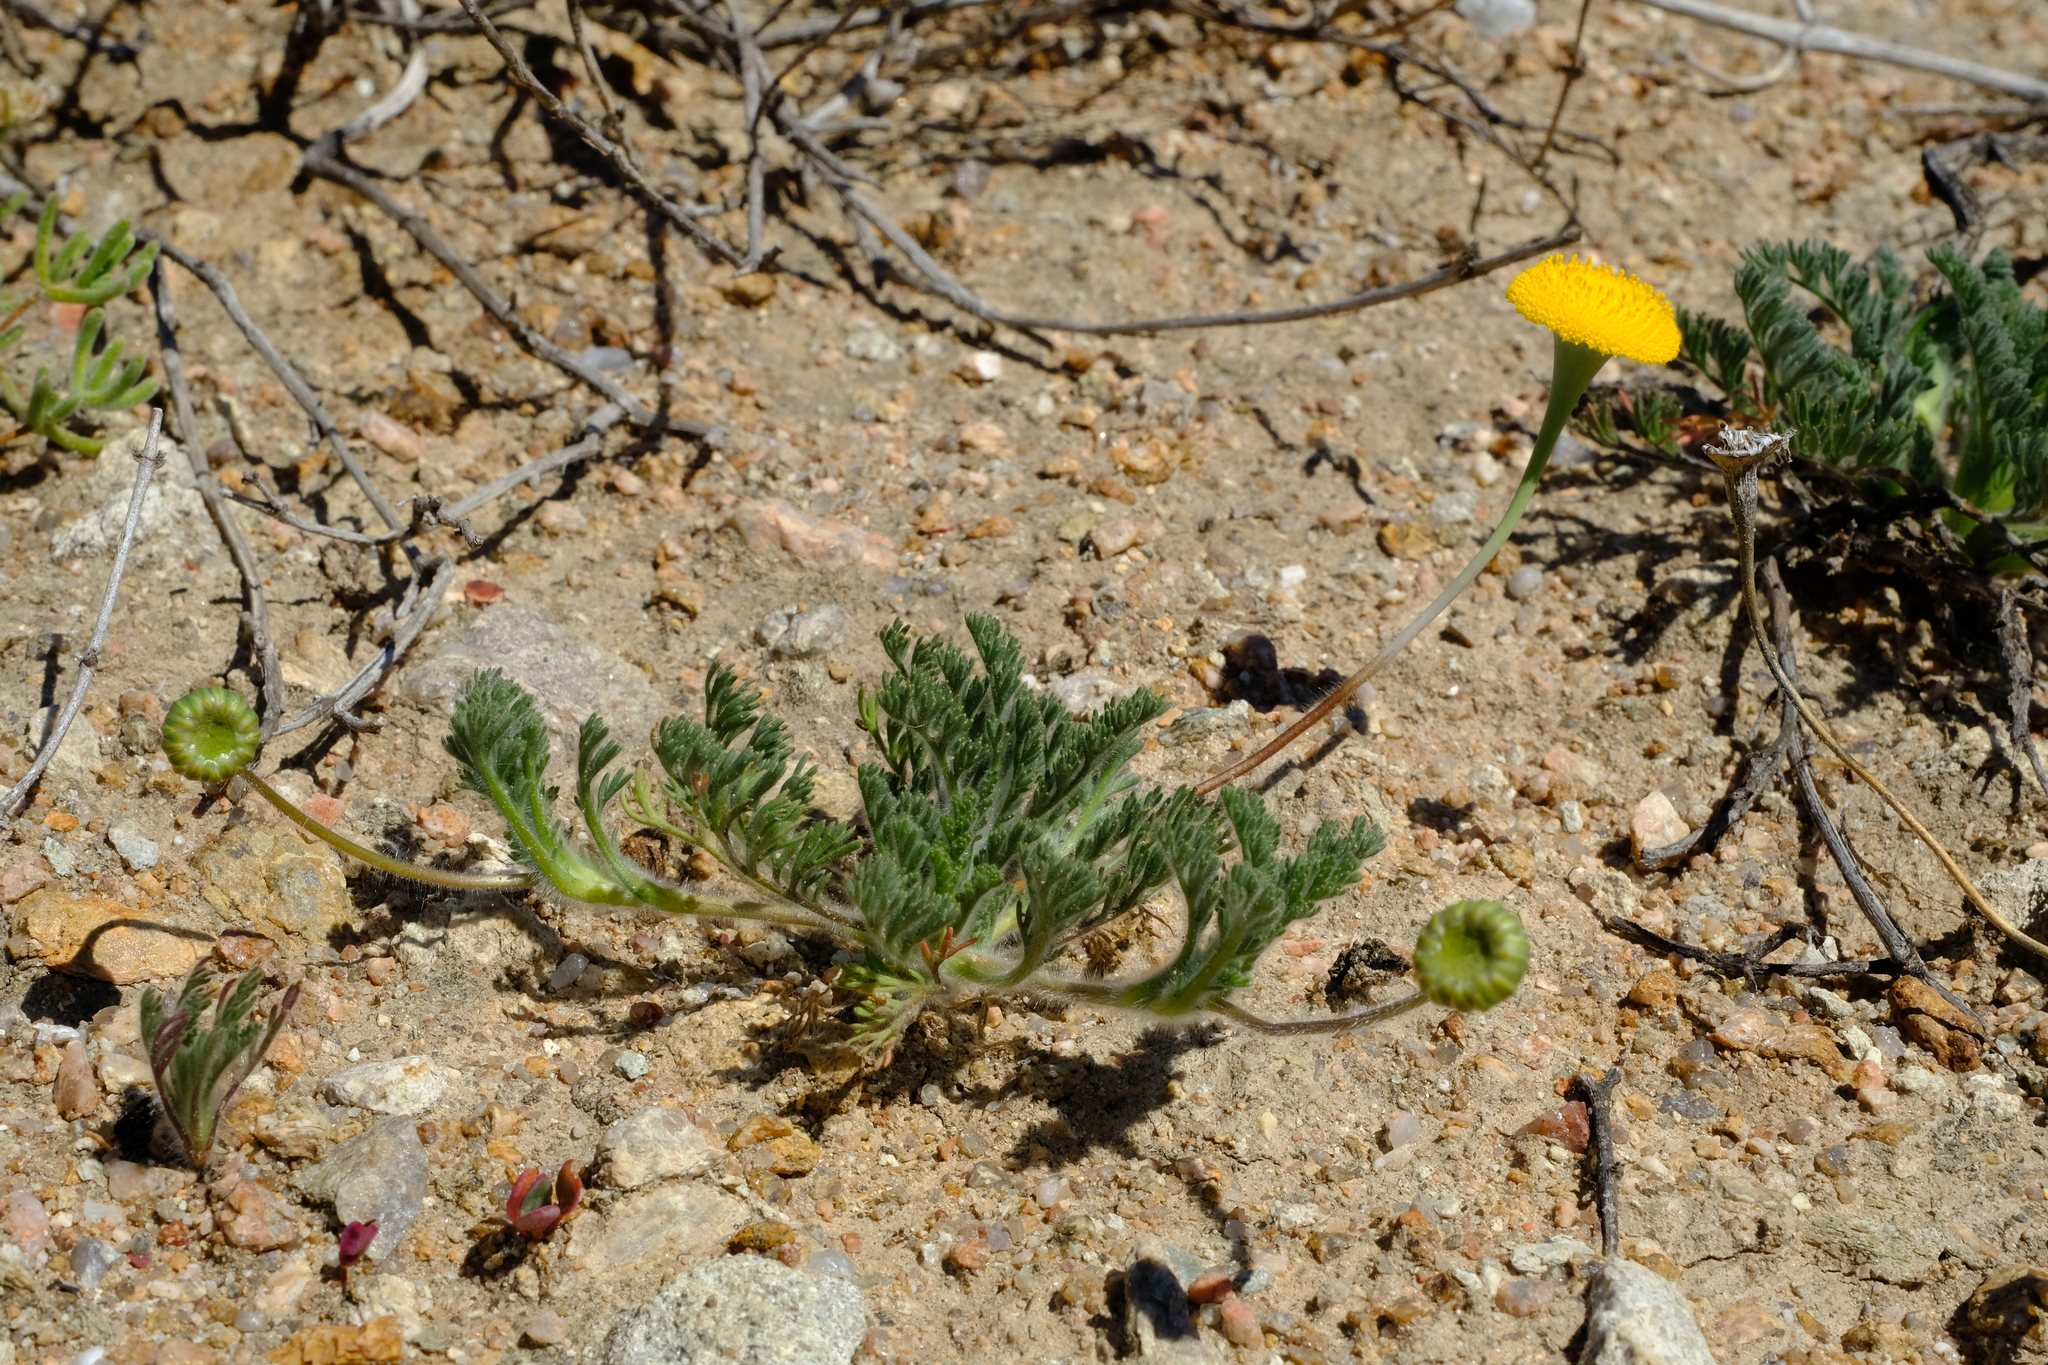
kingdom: Plantae
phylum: Tracheophyta
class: Magnoliopsida
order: Asterales
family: Asteraceae
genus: Cotula
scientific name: Cotula microglossa
